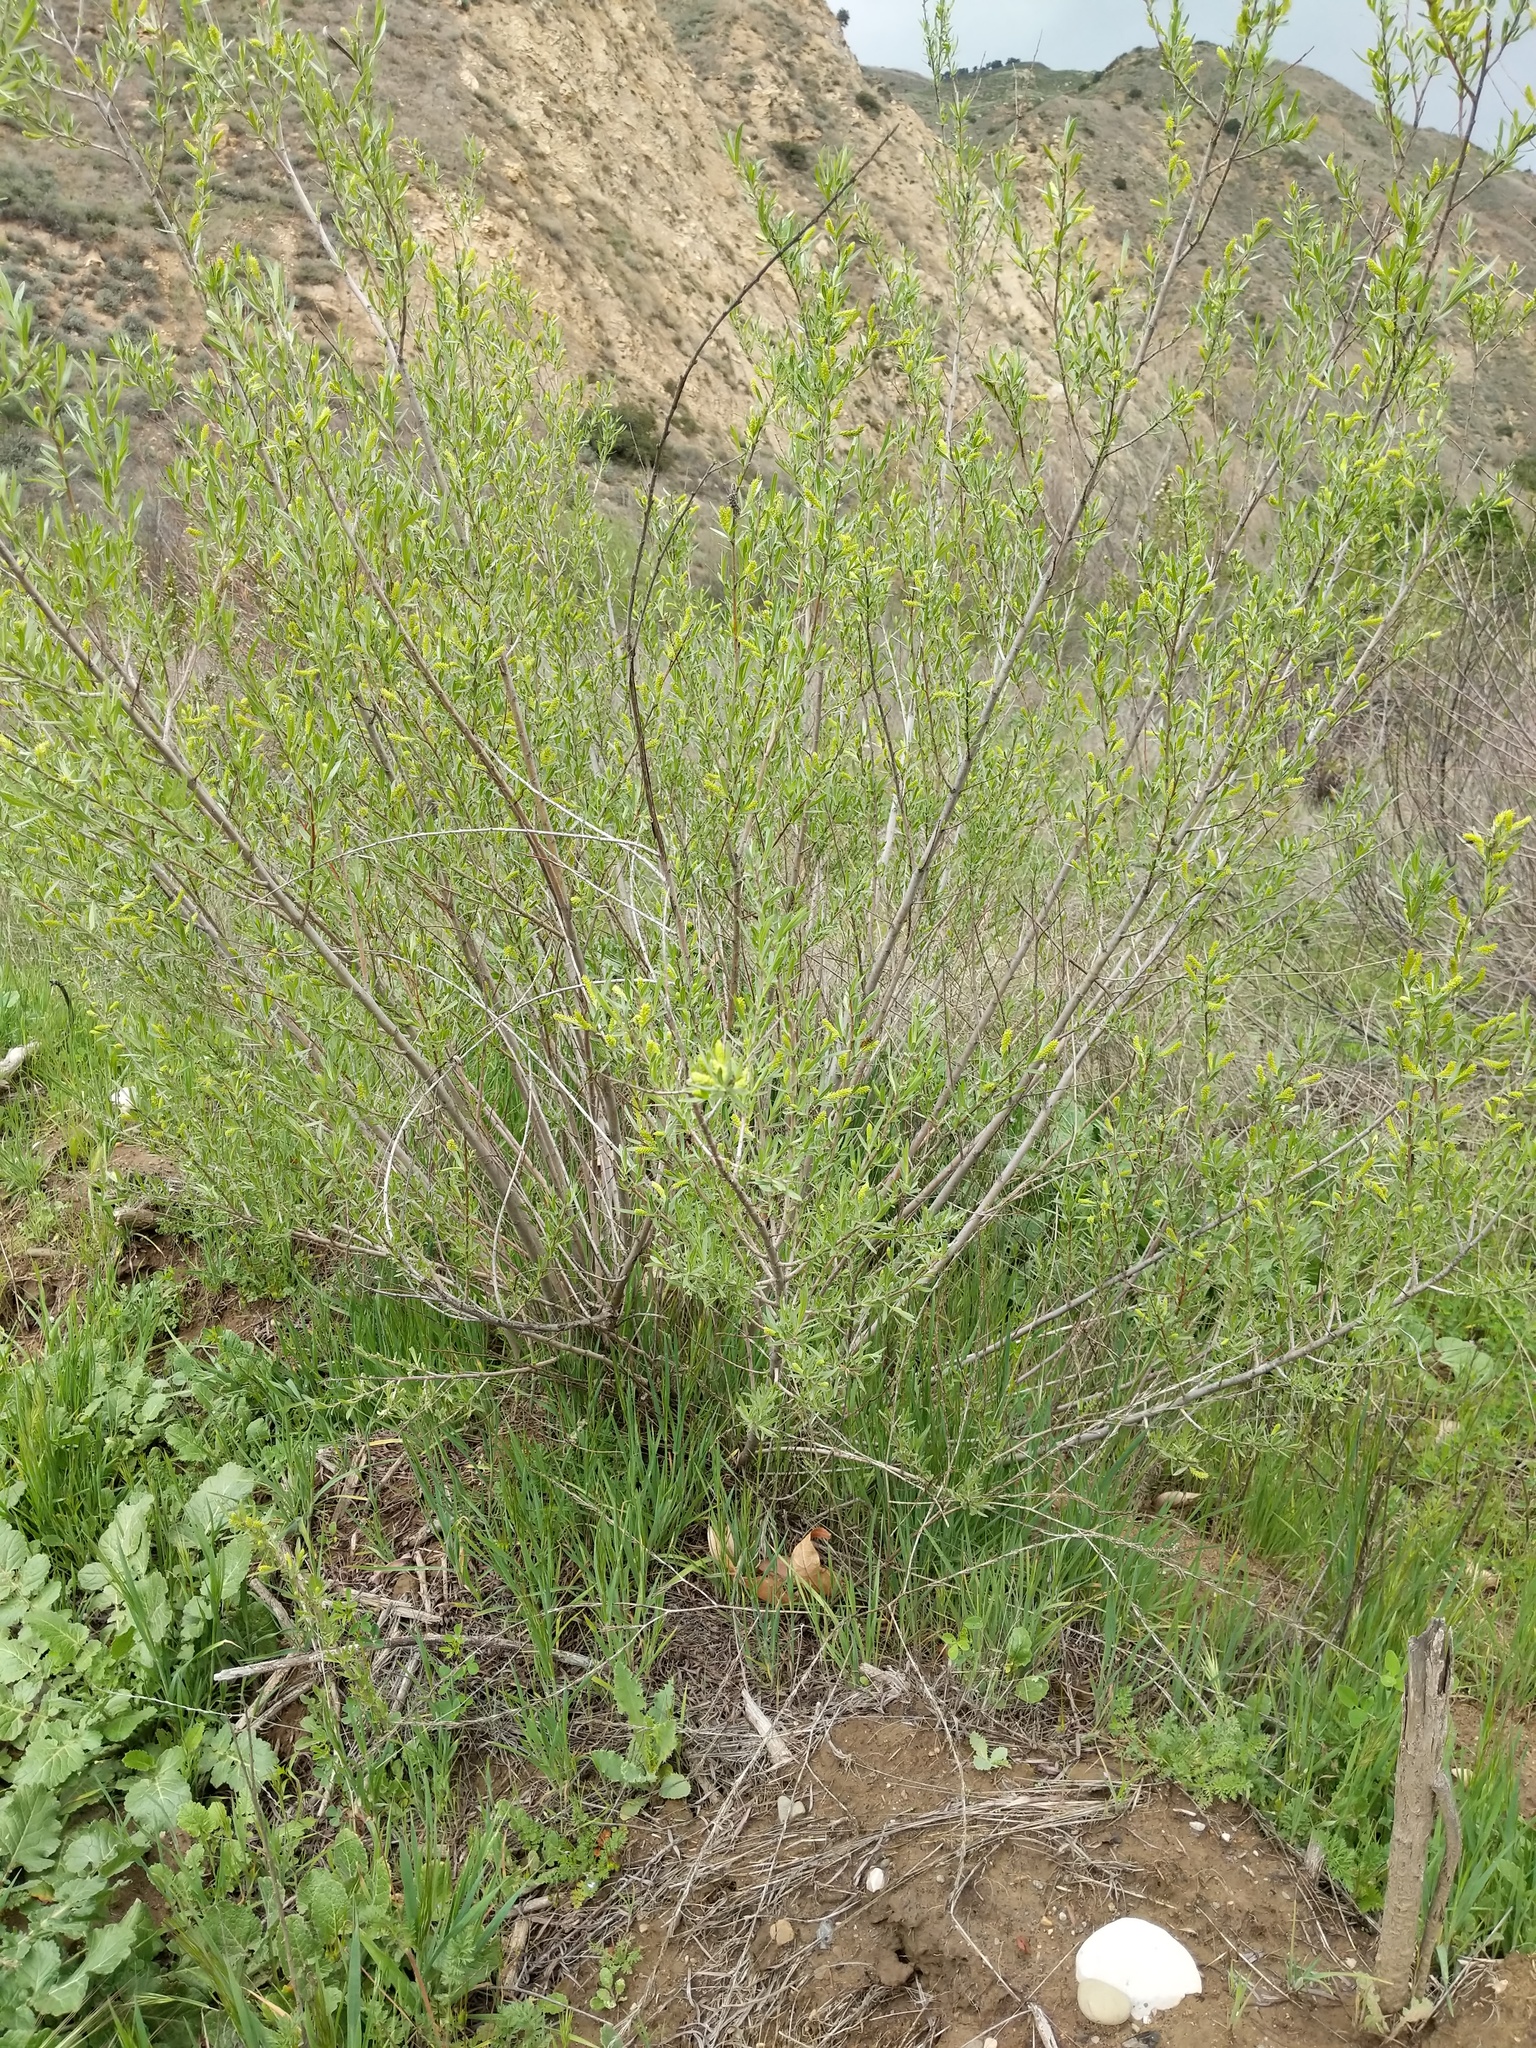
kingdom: Plantae
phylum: Tracheophyta
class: Magnoliopsida
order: Malpighiales
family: Salicaceae
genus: Salix
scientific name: Salix exigua
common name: Coyote willow
